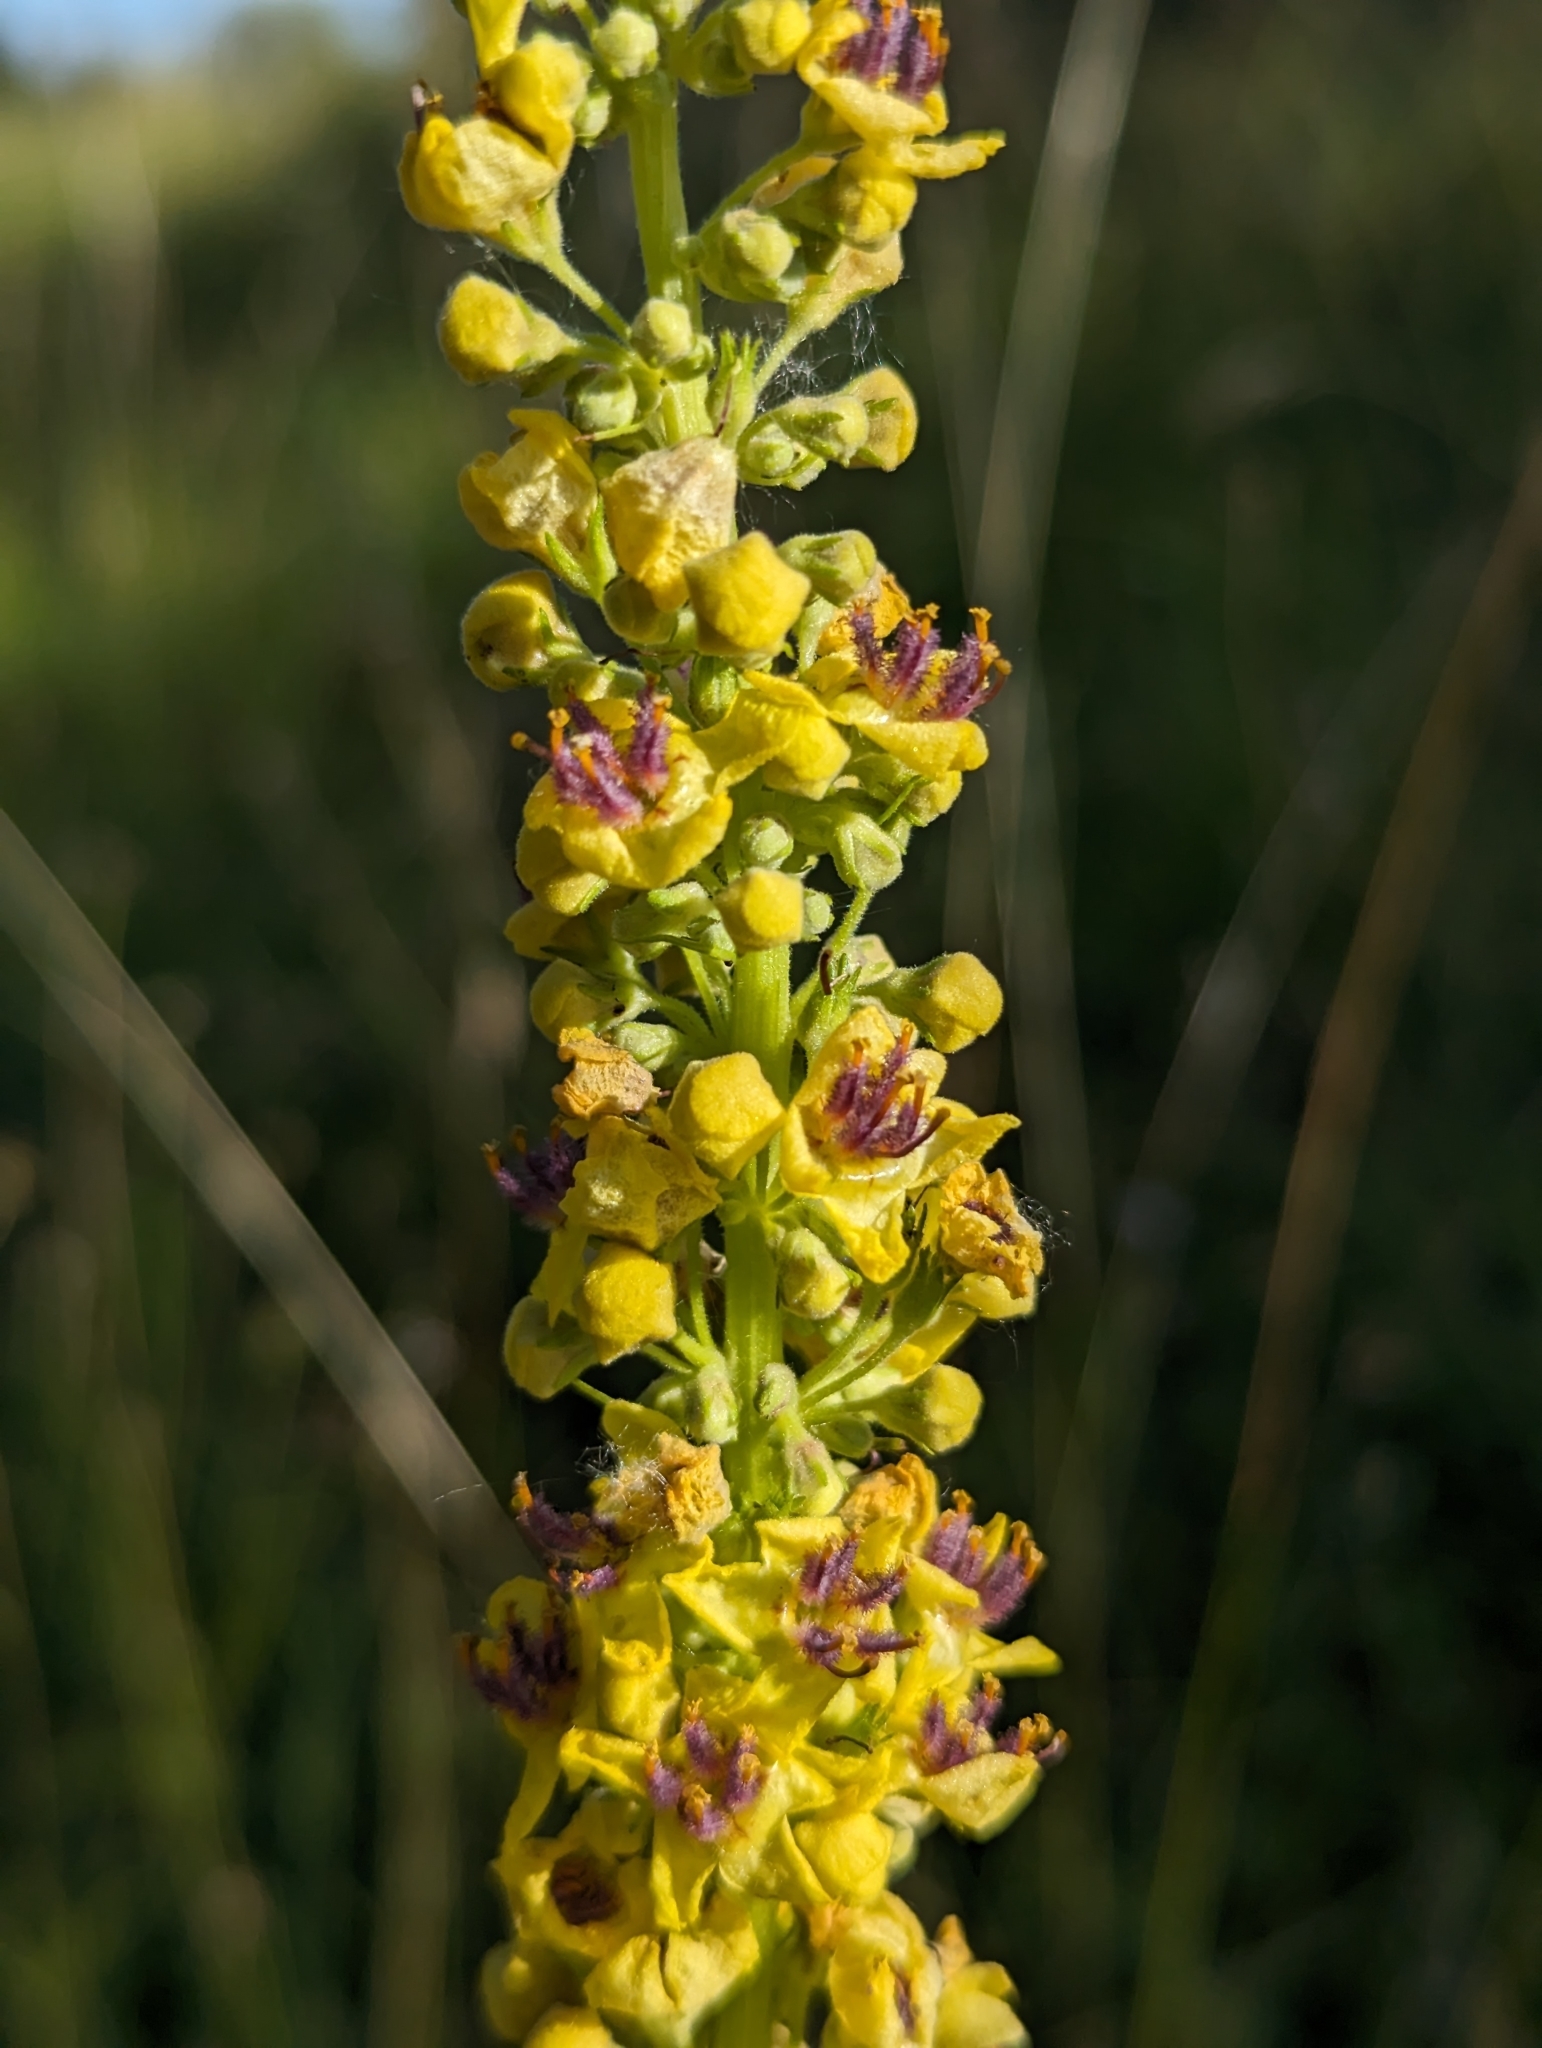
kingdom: Plantae
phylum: Tracheophyta
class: Magnoliopsida
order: Lamiales
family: Scrophulariaceae
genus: Verbascum
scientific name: Verbascum nigrum
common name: Dark mullein
